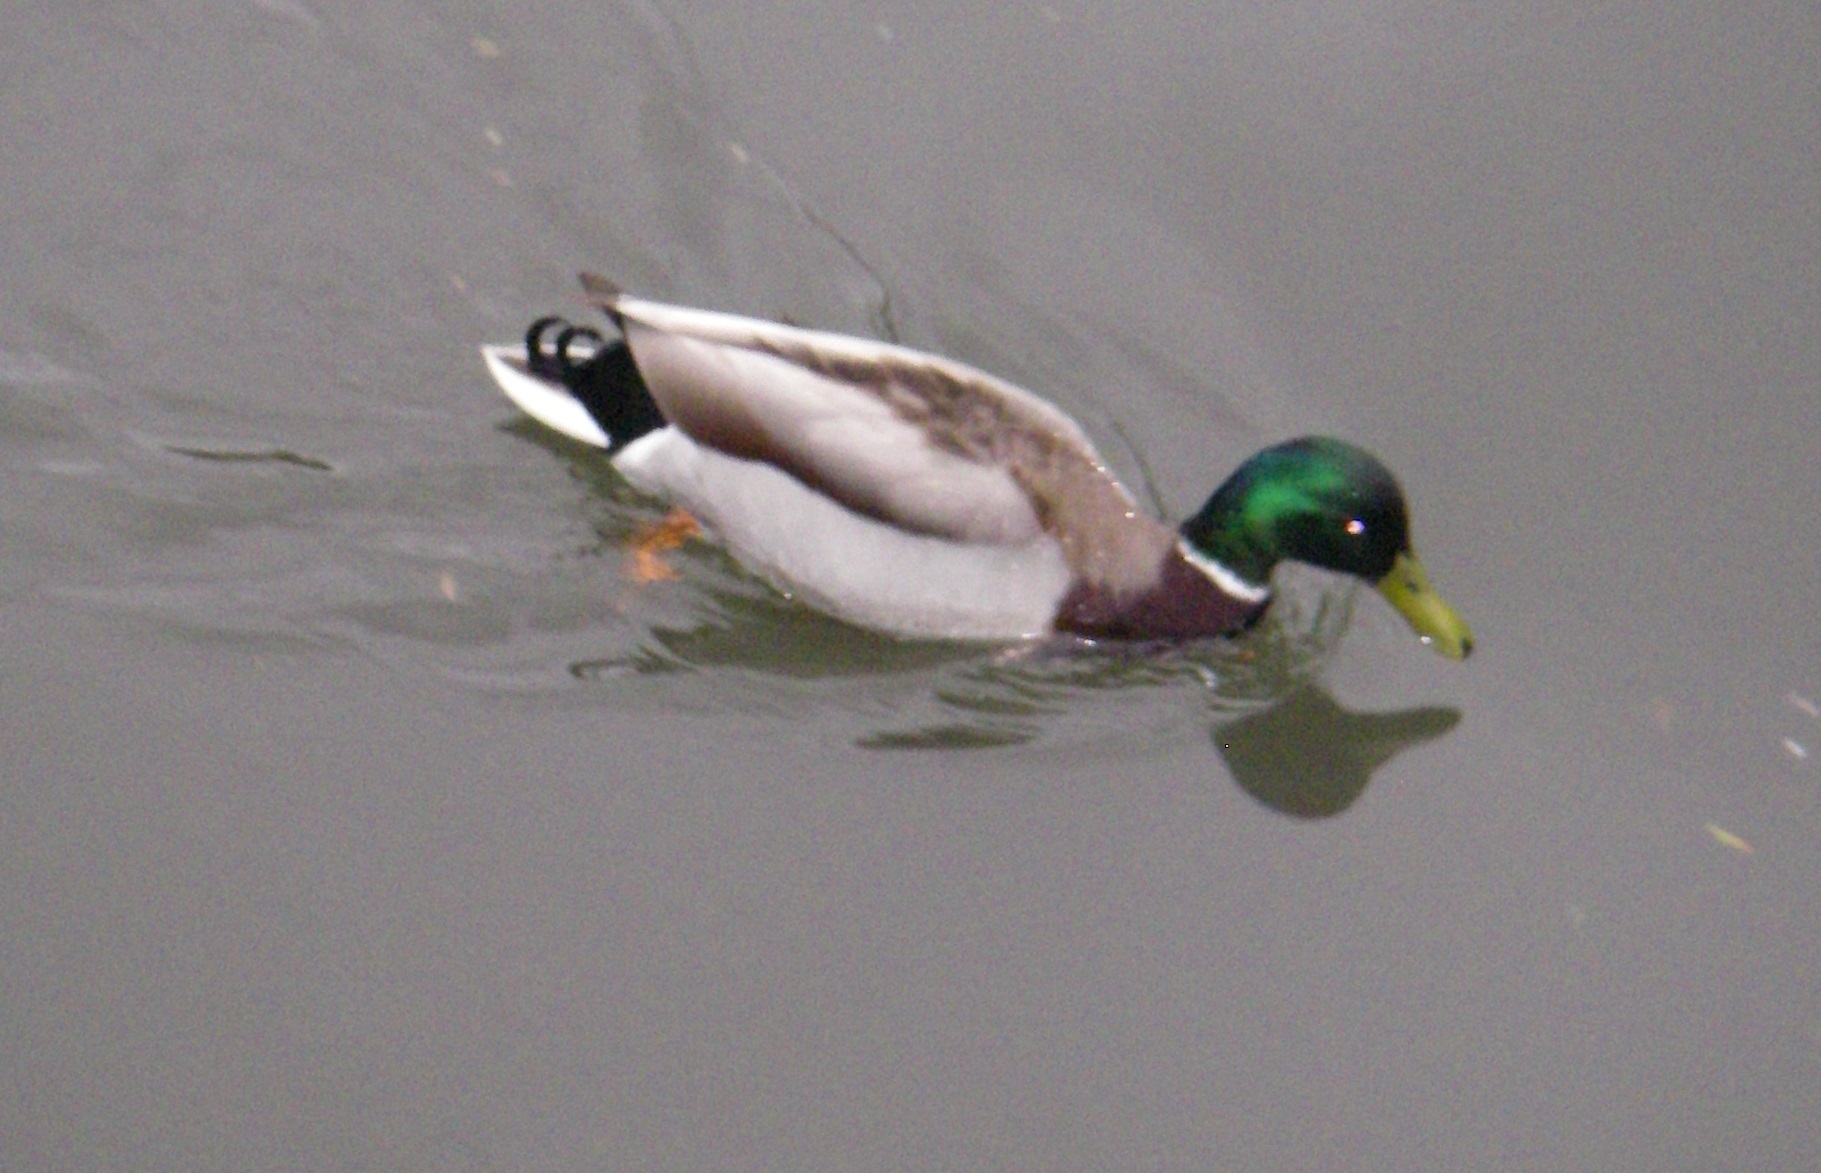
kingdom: Animalia
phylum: Chordata
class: Aves
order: Anseriformes
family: Anatidae
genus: Anas
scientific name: Anas platyrhynchos
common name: Mallard
